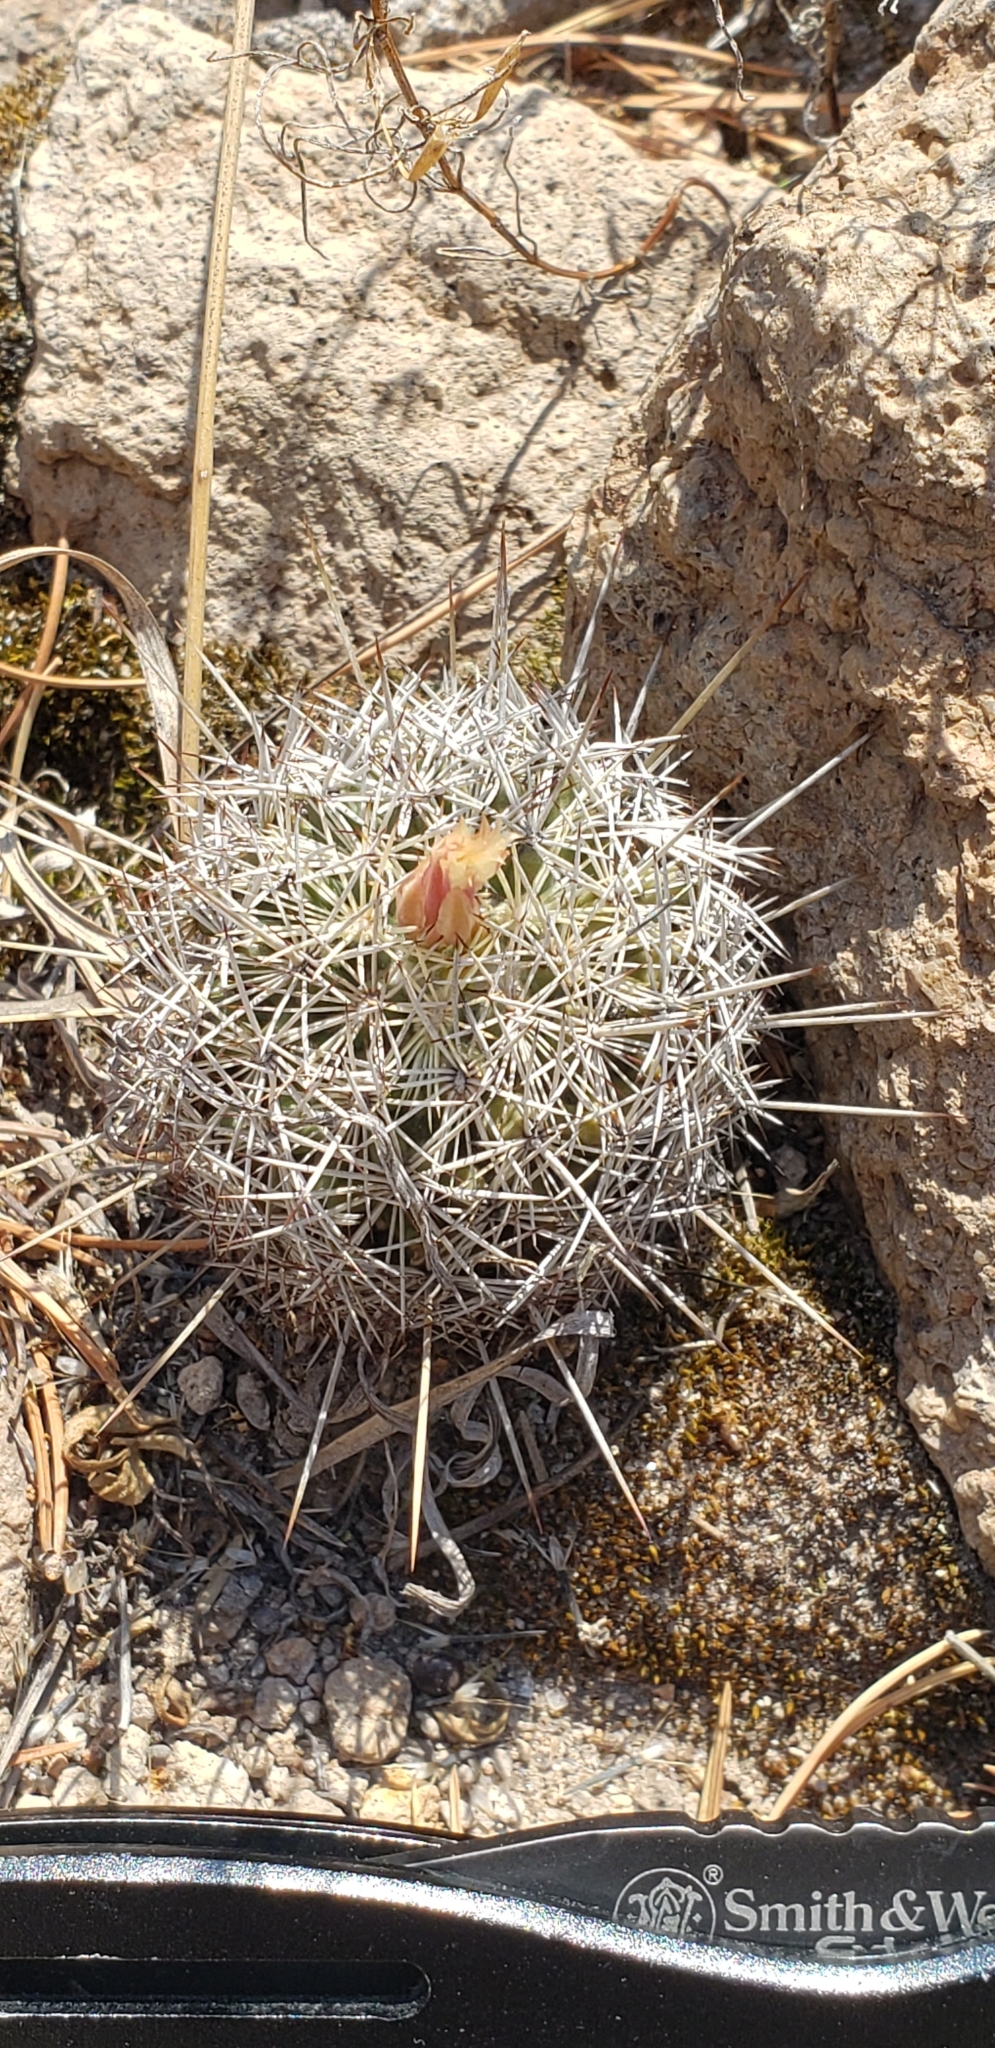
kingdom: Plantae
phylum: Tracheophyta
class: Magnoliopsida
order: Caryophyllales
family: Cactaceae
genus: Coryphantha
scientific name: Coryphantha clavata
